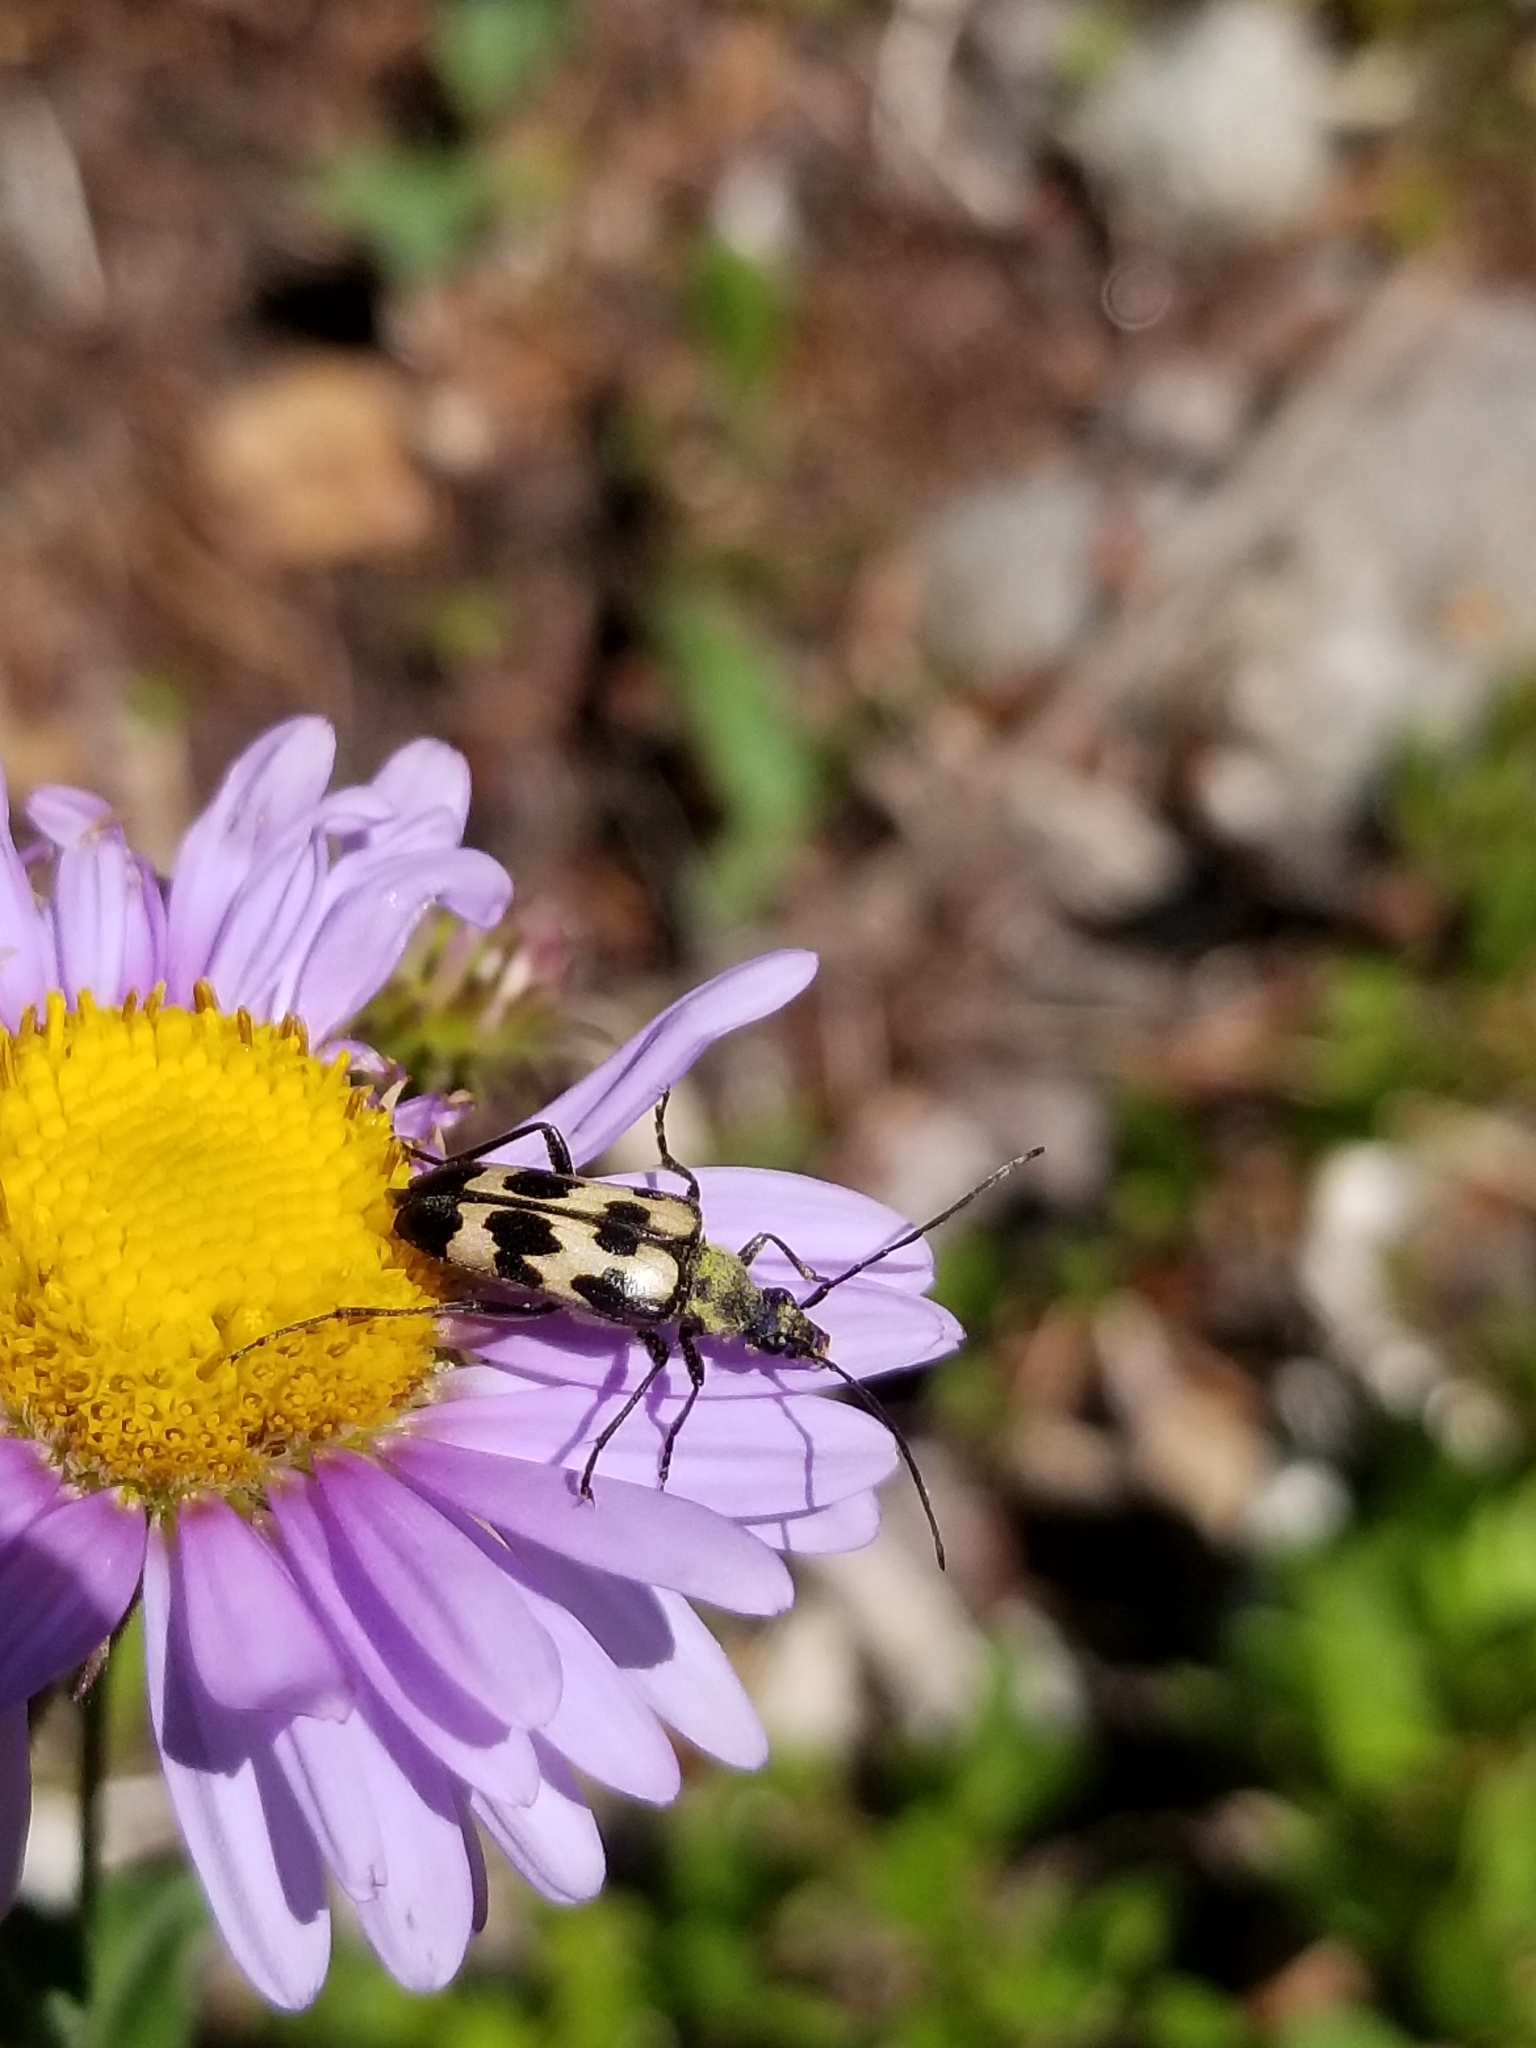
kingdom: Animalia
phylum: Arthropoda
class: Insecta
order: Coleoptera
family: Cerambycidae
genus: Judolia
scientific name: Judolia montivagans
